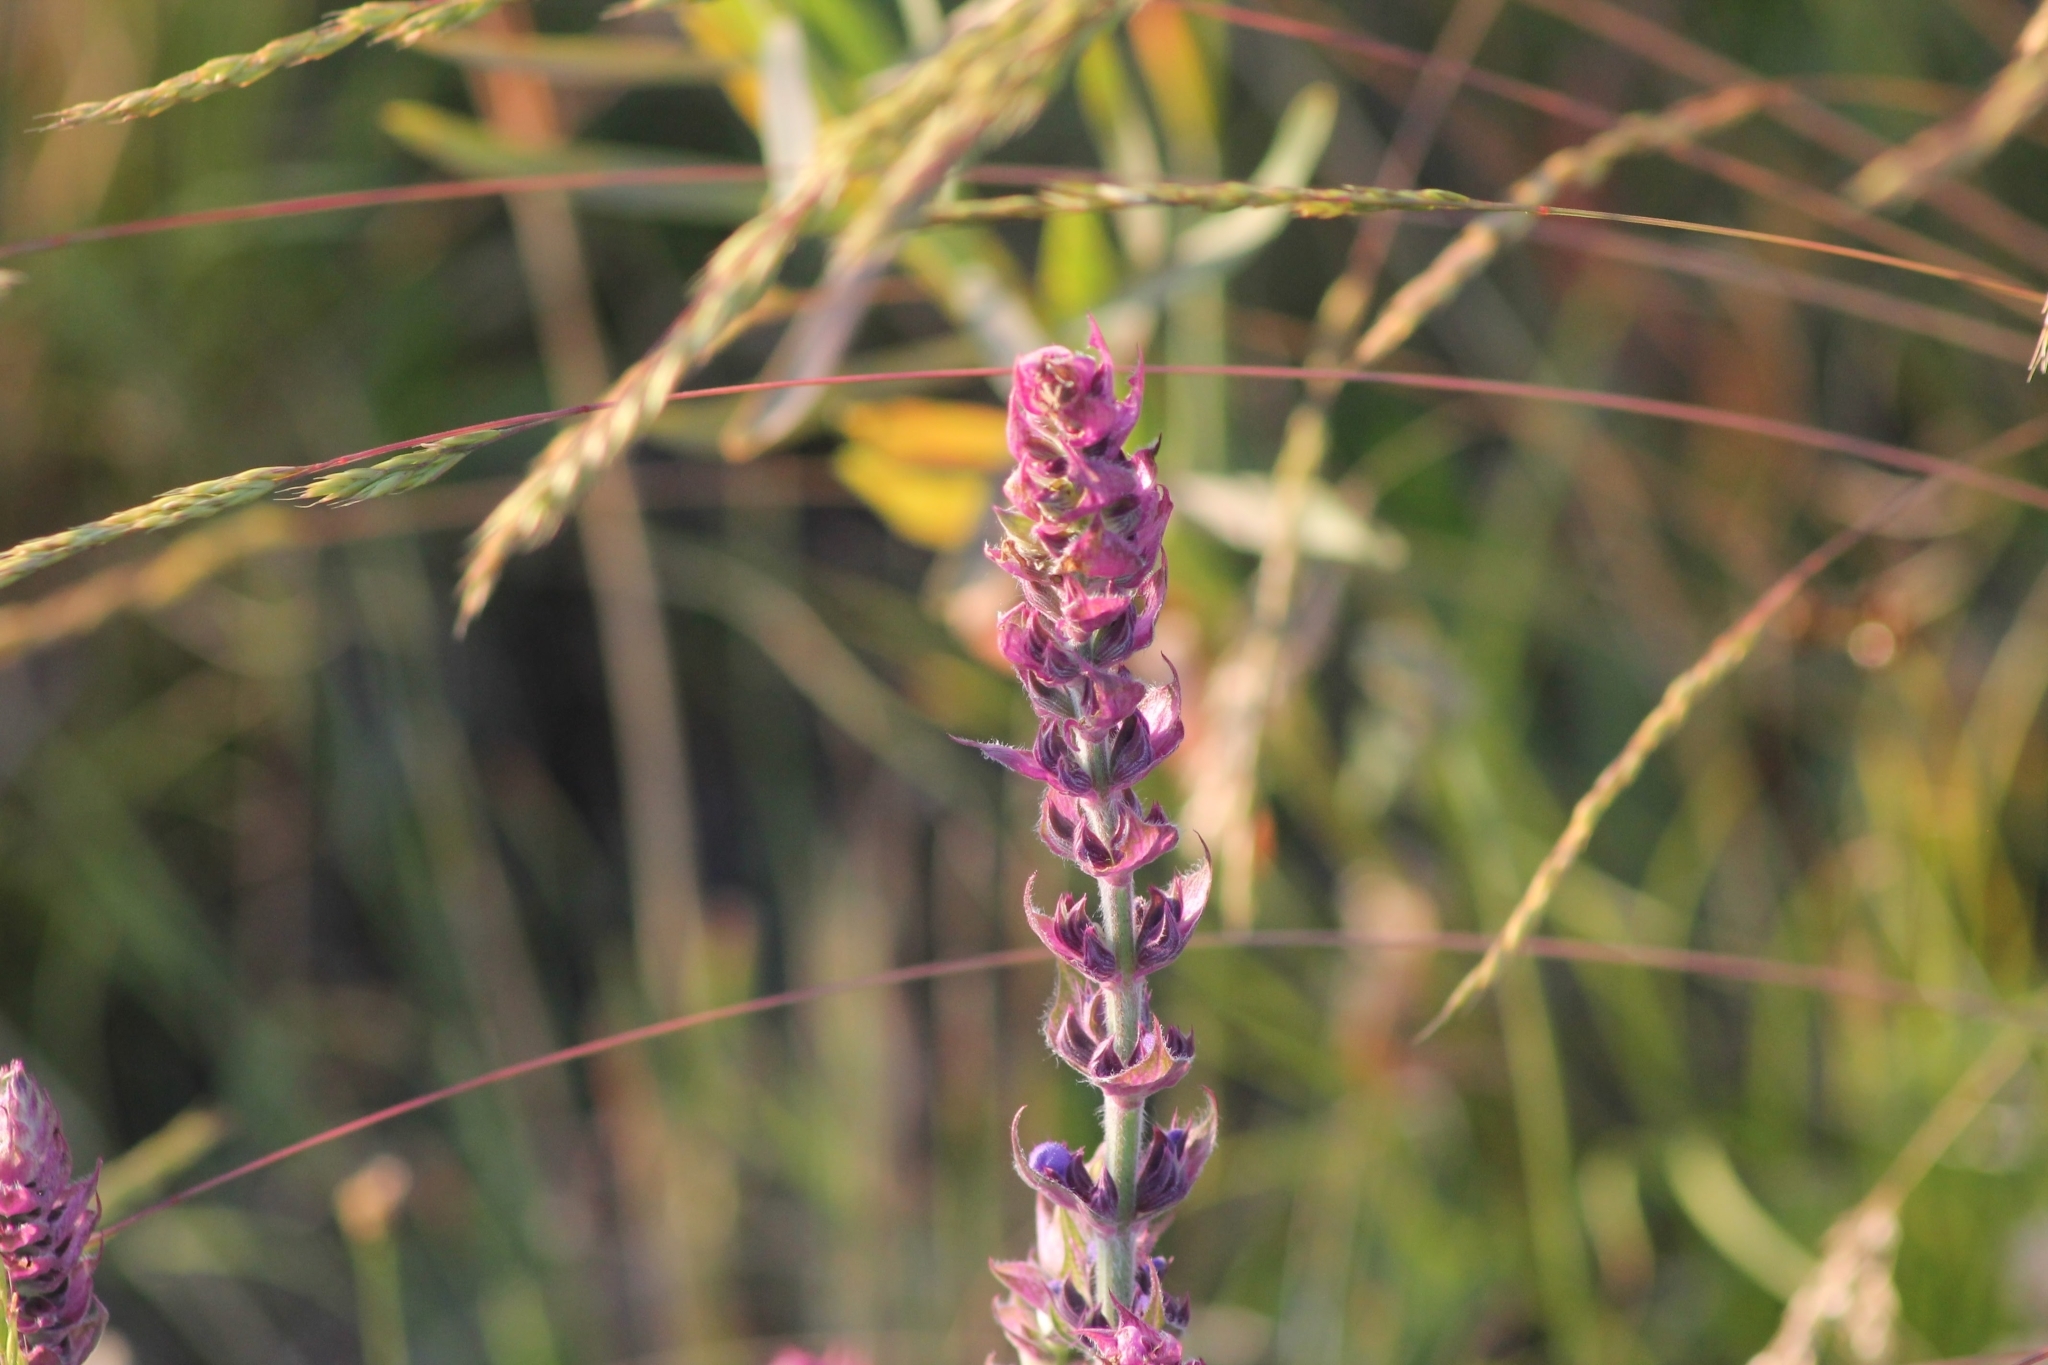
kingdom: Plantae
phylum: Tracheophyta
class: Magnoliopsida
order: Myrtales
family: Lythraceae
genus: Lythrum
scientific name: Lythrum salicaria
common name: Purple loosestrife
